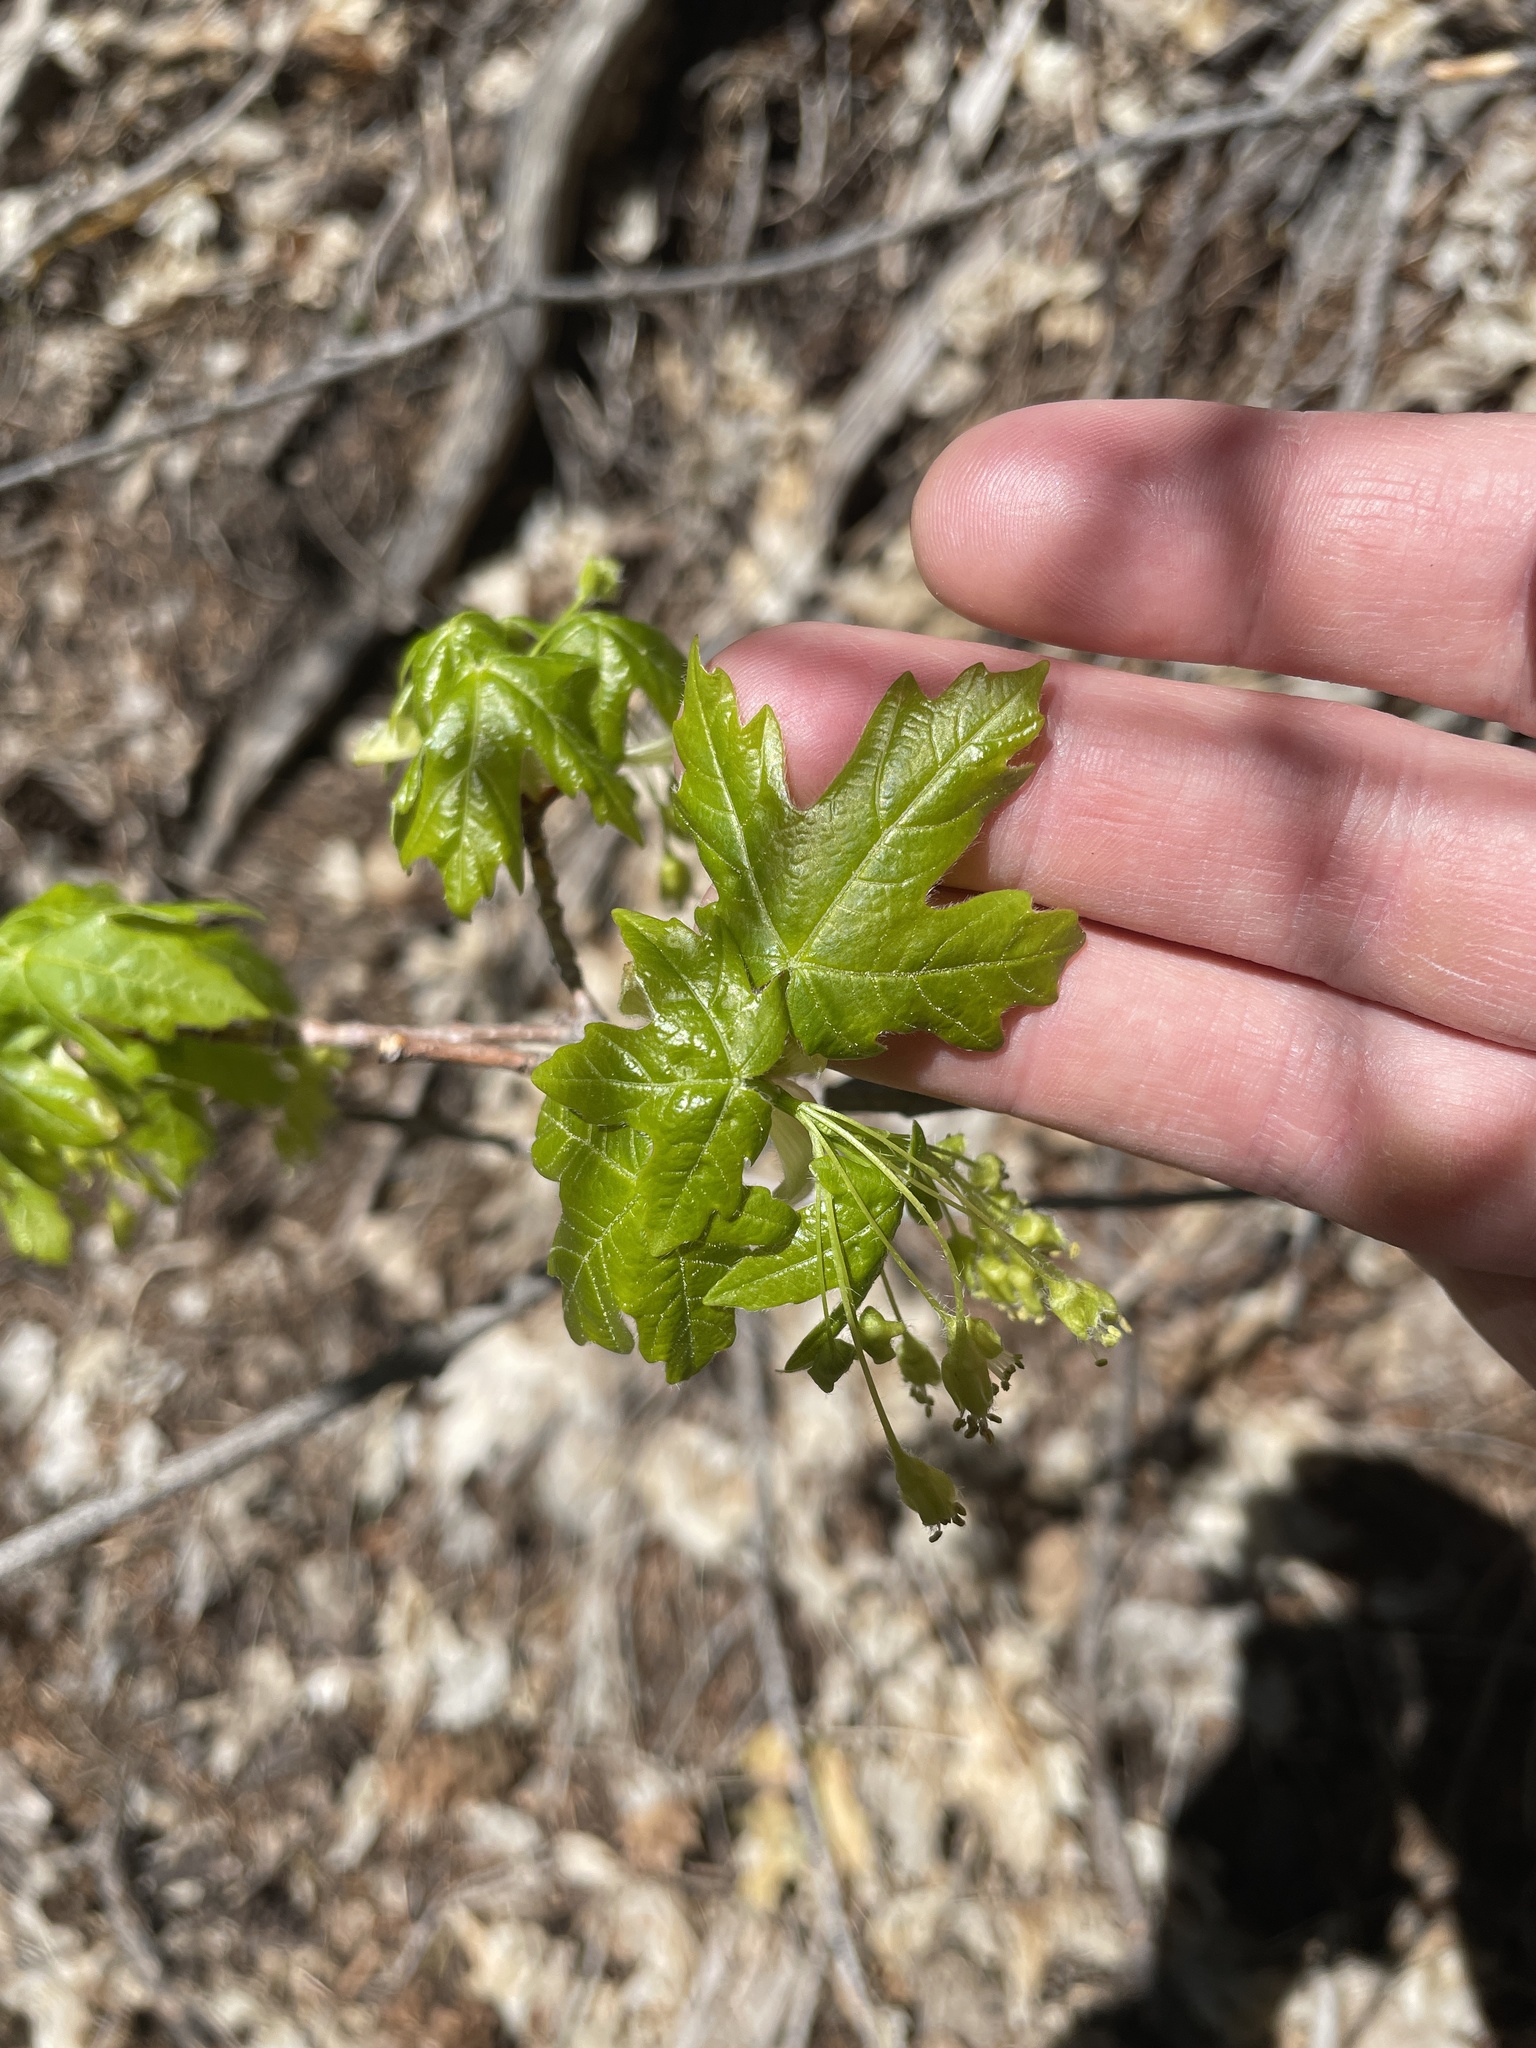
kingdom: Plantae
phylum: Tracheophyta
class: Magnoliopsida
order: Sapindales
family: Sapindaceae
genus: Acer
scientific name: Acer grandidentatum
